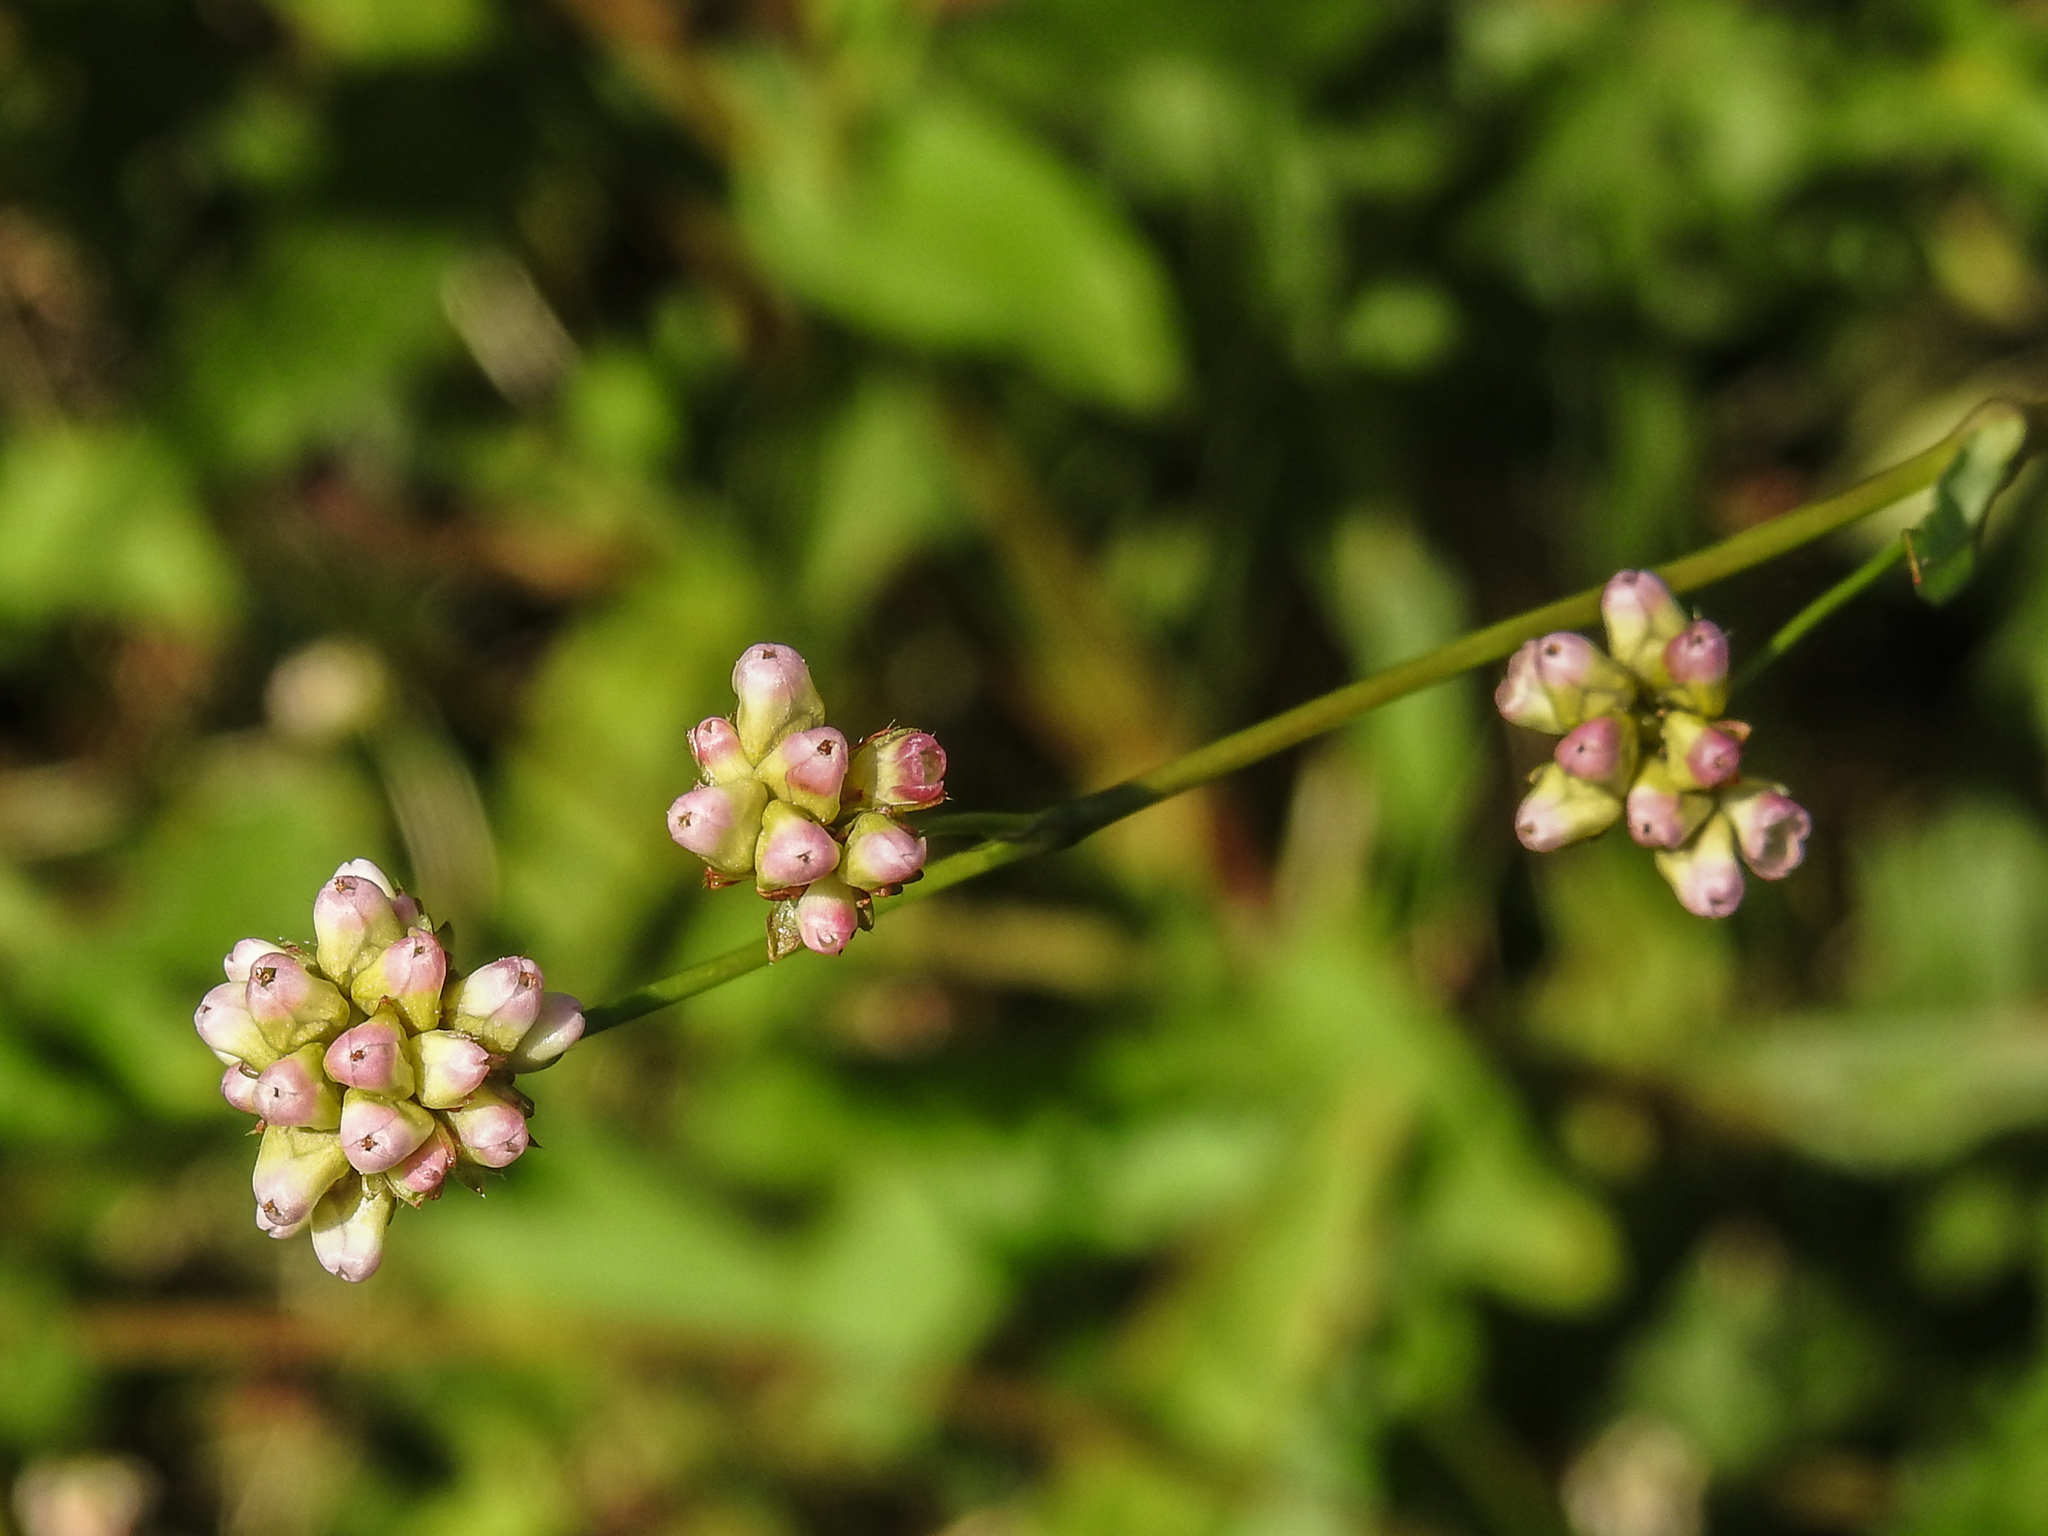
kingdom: Plantae
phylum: Tracheophyta
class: Magnoliopsida
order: Caryophyllales
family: Polygonaceae
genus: Persicaria
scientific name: Persicaria sagittata
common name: American tearthumb
